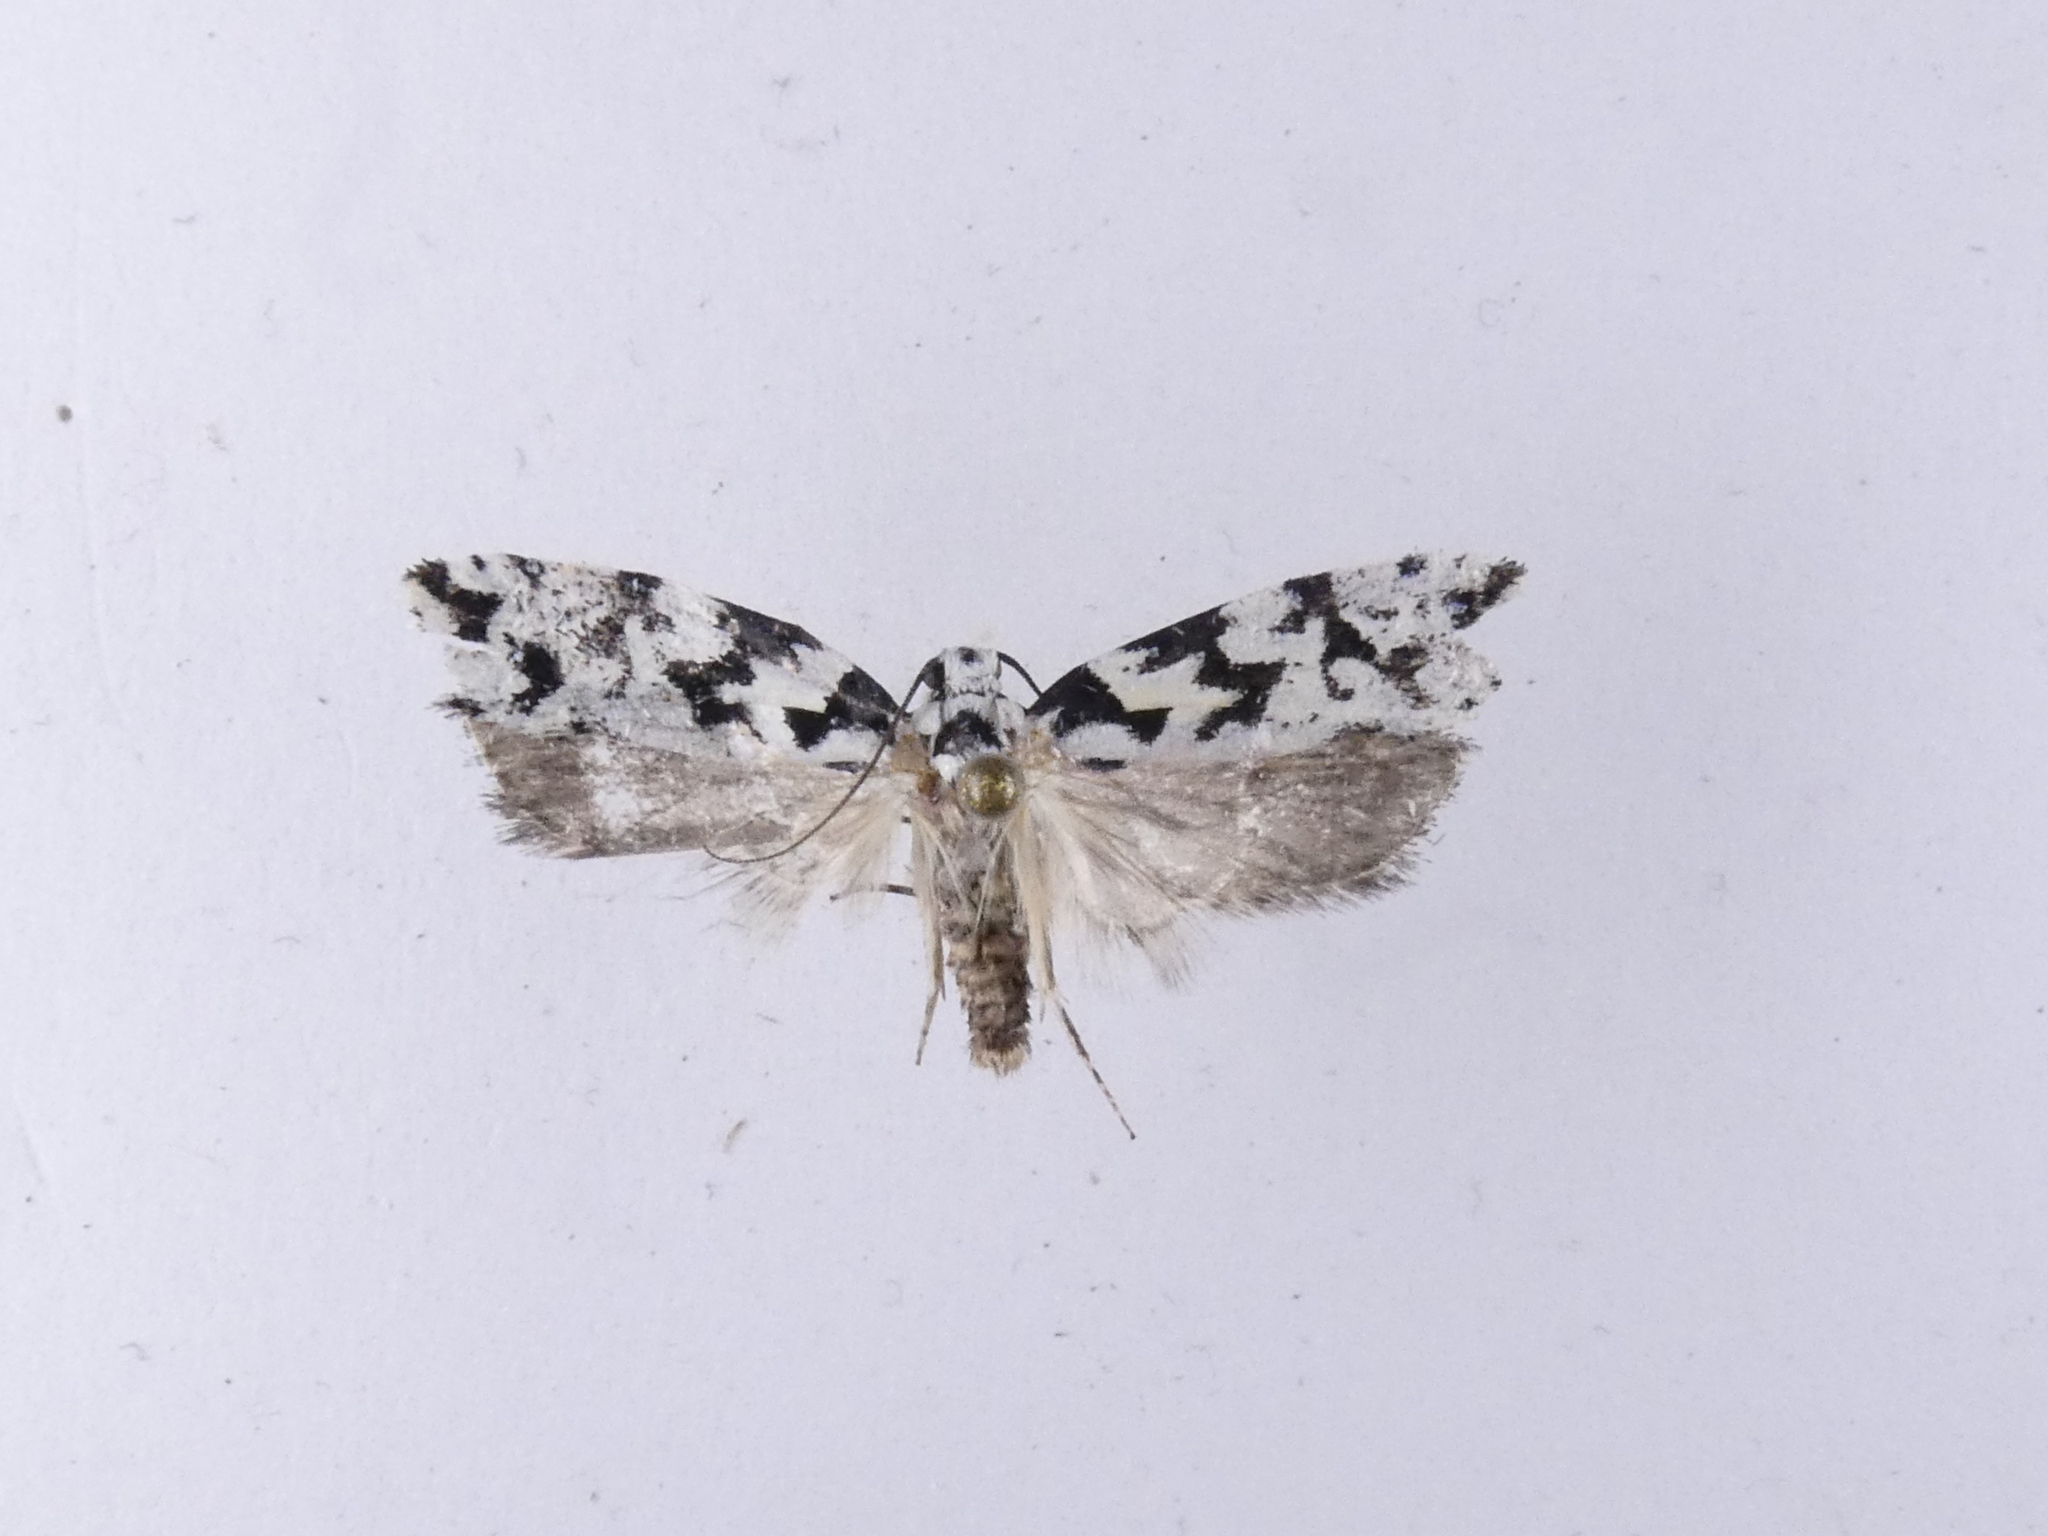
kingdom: Animalia
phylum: Arthropoda
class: Insecta
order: Lepidoptera
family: Oecophoridae
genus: Izatha
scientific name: Izatha
